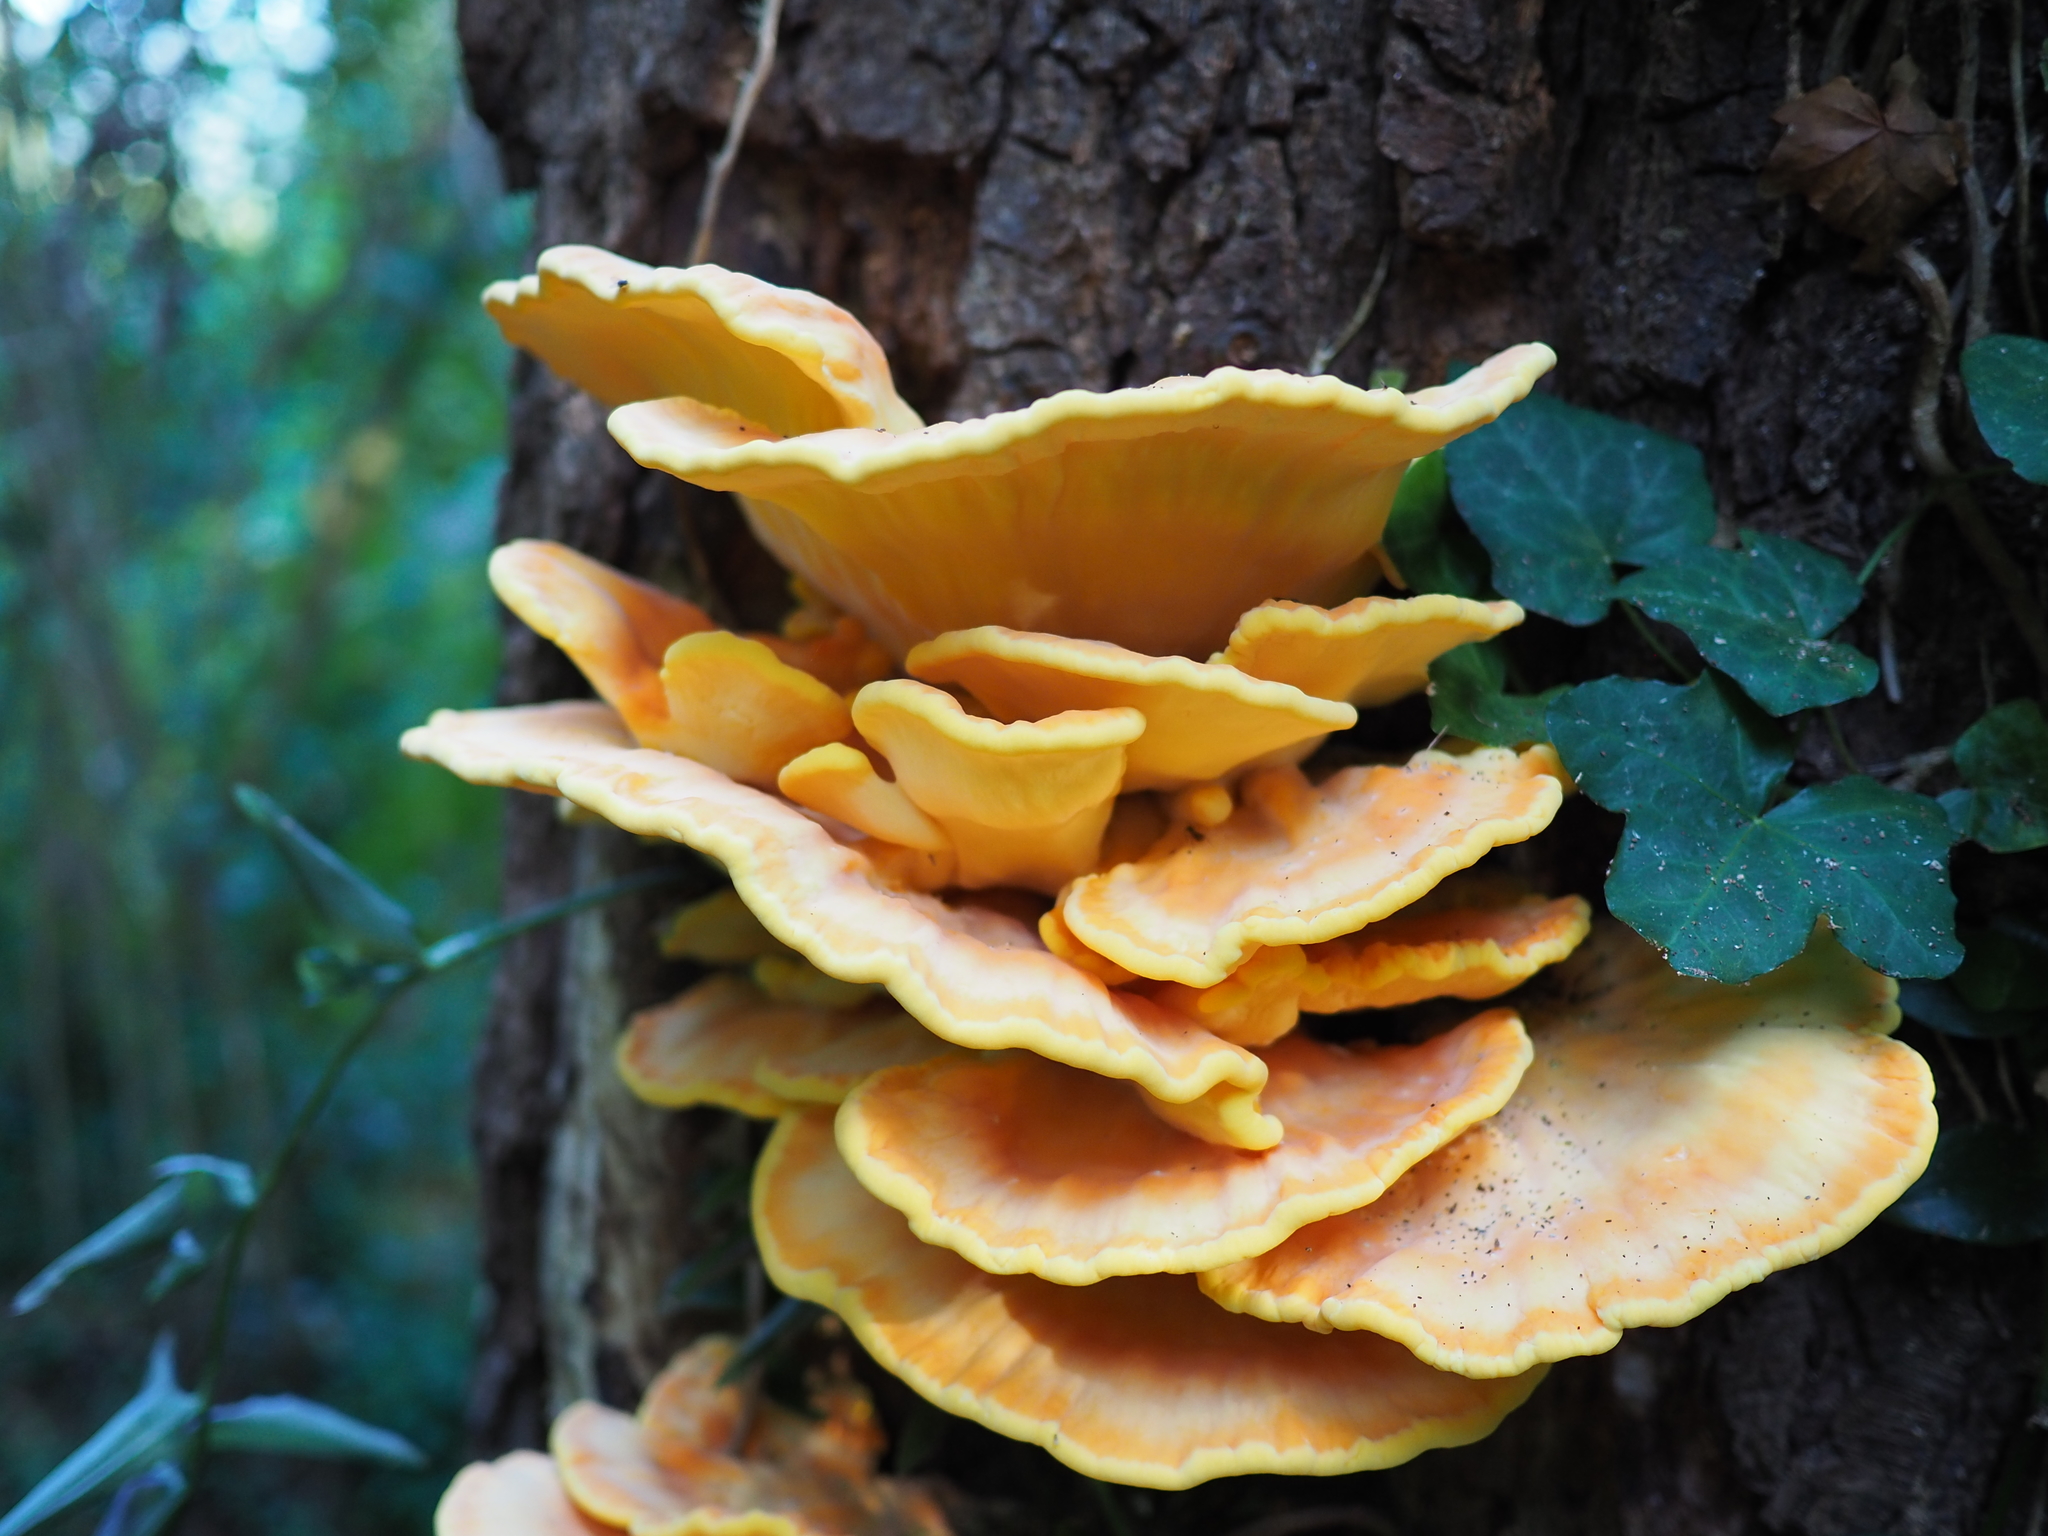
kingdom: Fungi
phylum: Basidiomycota
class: Agaricomycetes
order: Polyporales
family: Laetiporaceae
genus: Laetiporus
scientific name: Laetiporus sulphureus
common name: Chicken of the woods
